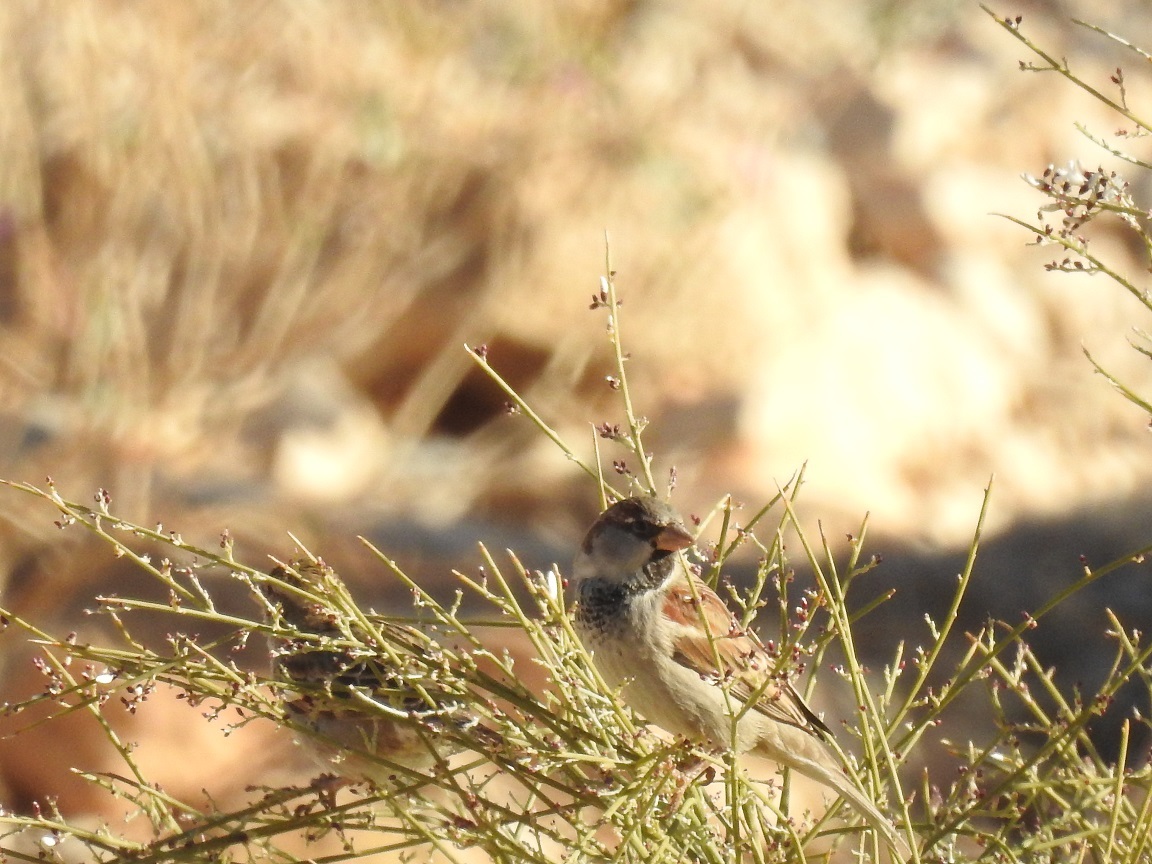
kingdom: Animalia
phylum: Chordata
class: Aves
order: Passeriformes
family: Passeridae
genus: Passer
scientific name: Passer domesticus
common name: House sparrow
